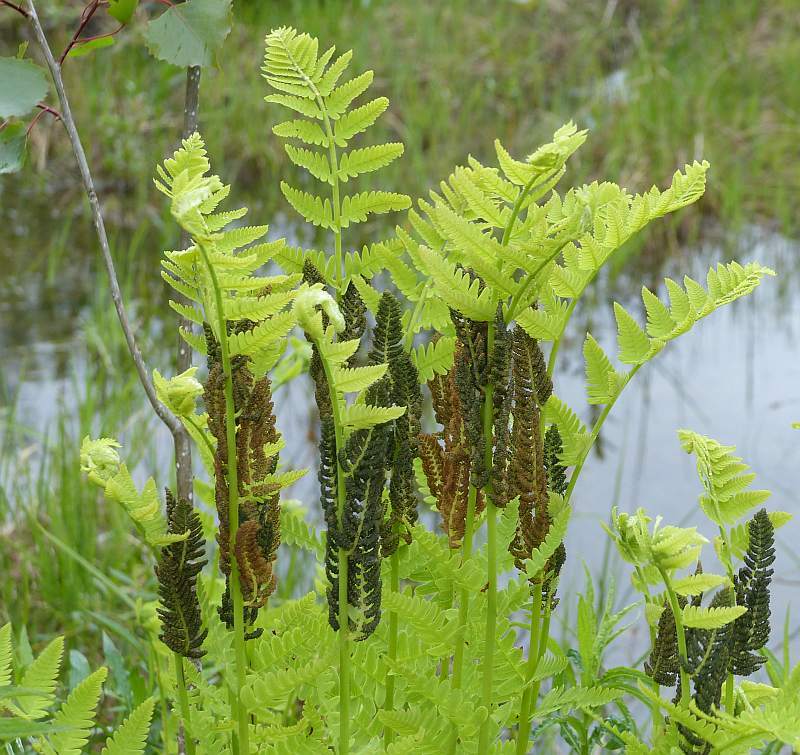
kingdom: Plantae
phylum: Tracheophyta
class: Polypodiopsida
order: Osmundales
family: Osmundaceae
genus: Claytosmunda
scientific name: Claytosmunda claytoniana
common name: Clayton's fern
